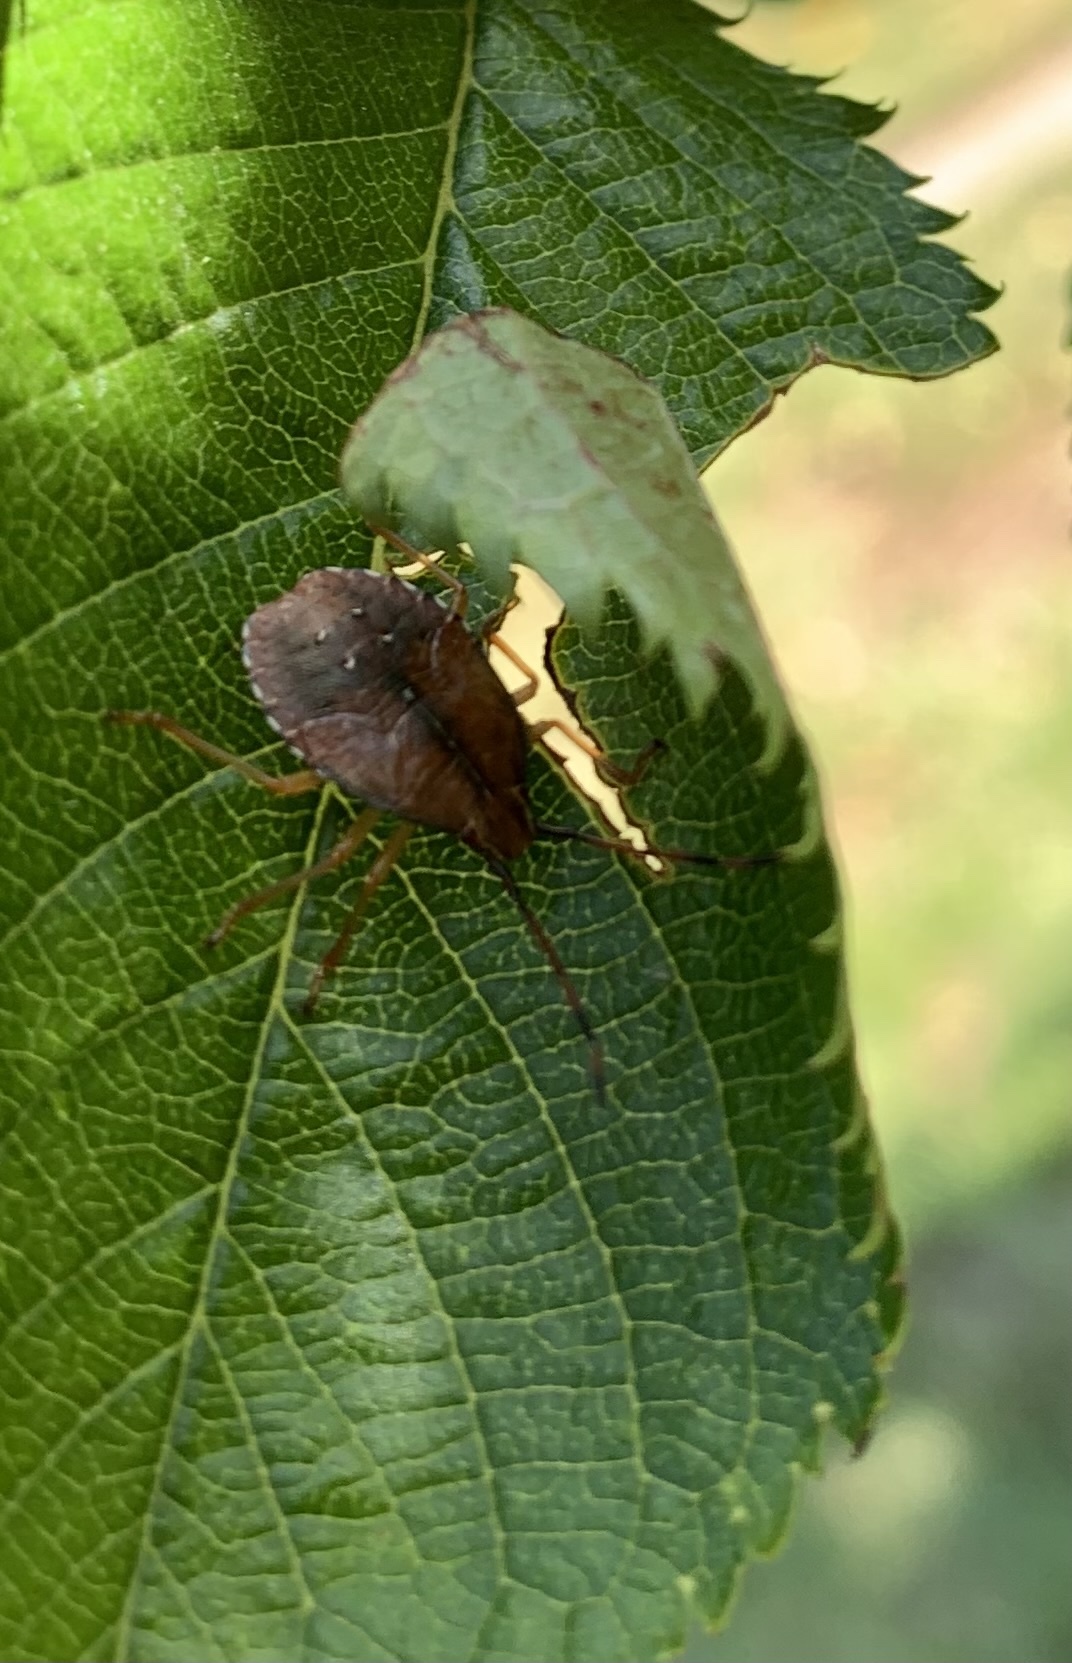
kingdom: Animalia
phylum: Arthropoda
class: Insecta
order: Hemiptera
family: Acanthosomatidae
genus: Planois
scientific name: Planois gayi
